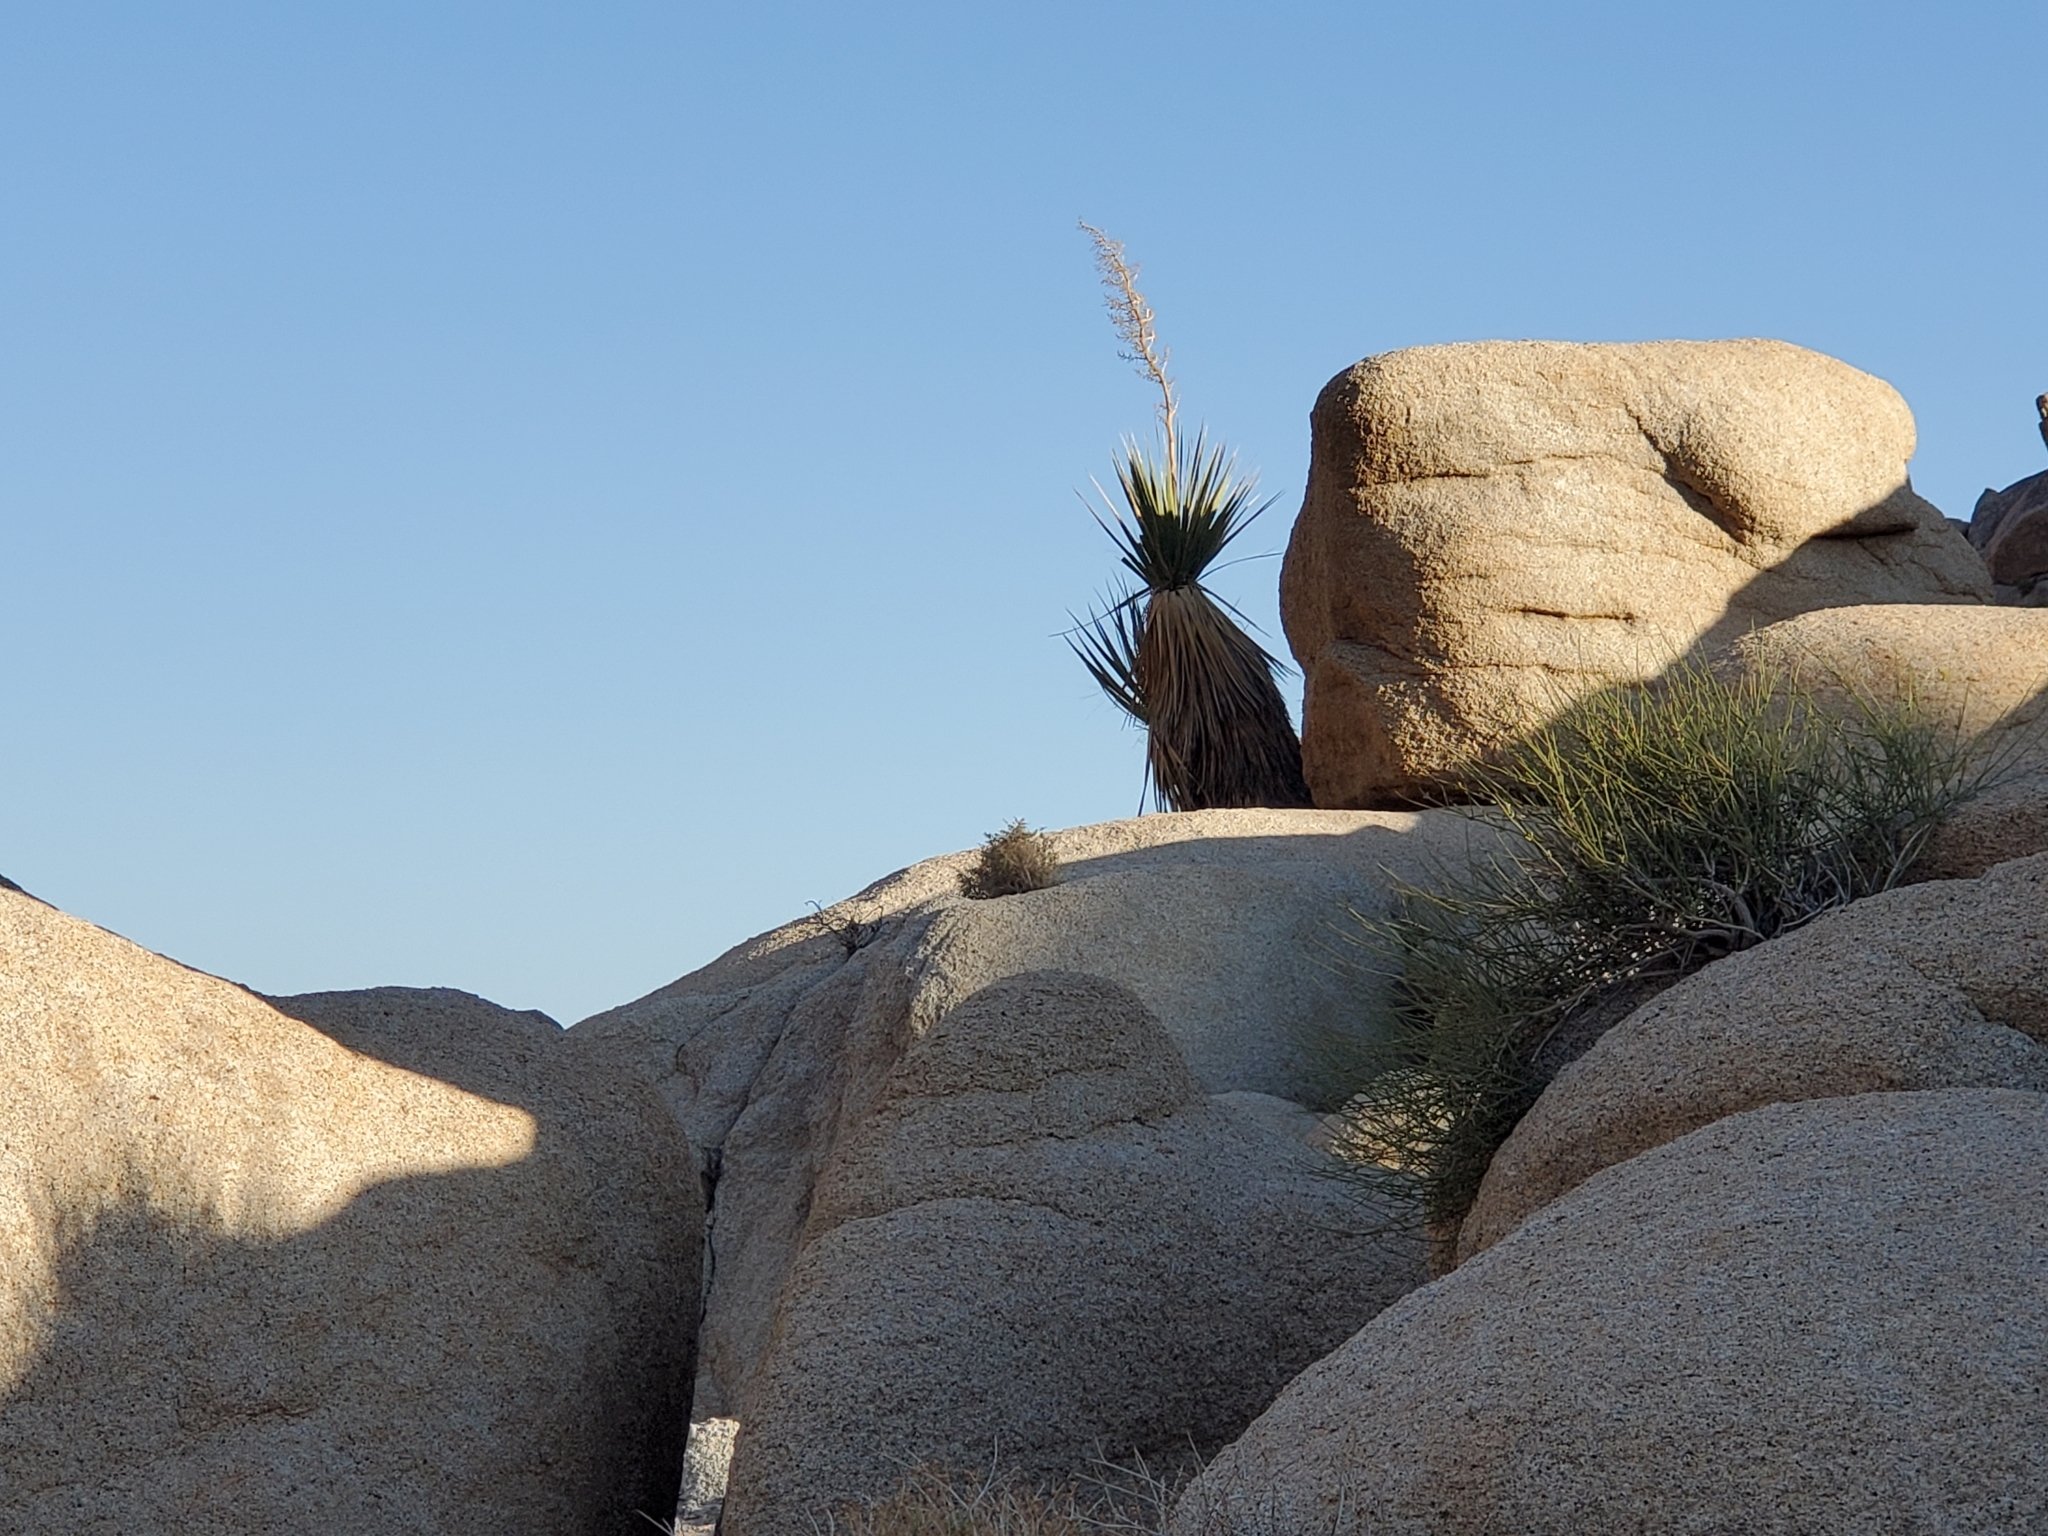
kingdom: Plantae
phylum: Tracheophyta
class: Liliopsida
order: Asparagales
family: Asparagaceae
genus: Nolina
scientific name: Nolina bigelovii
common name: Bigelow bear-grass
